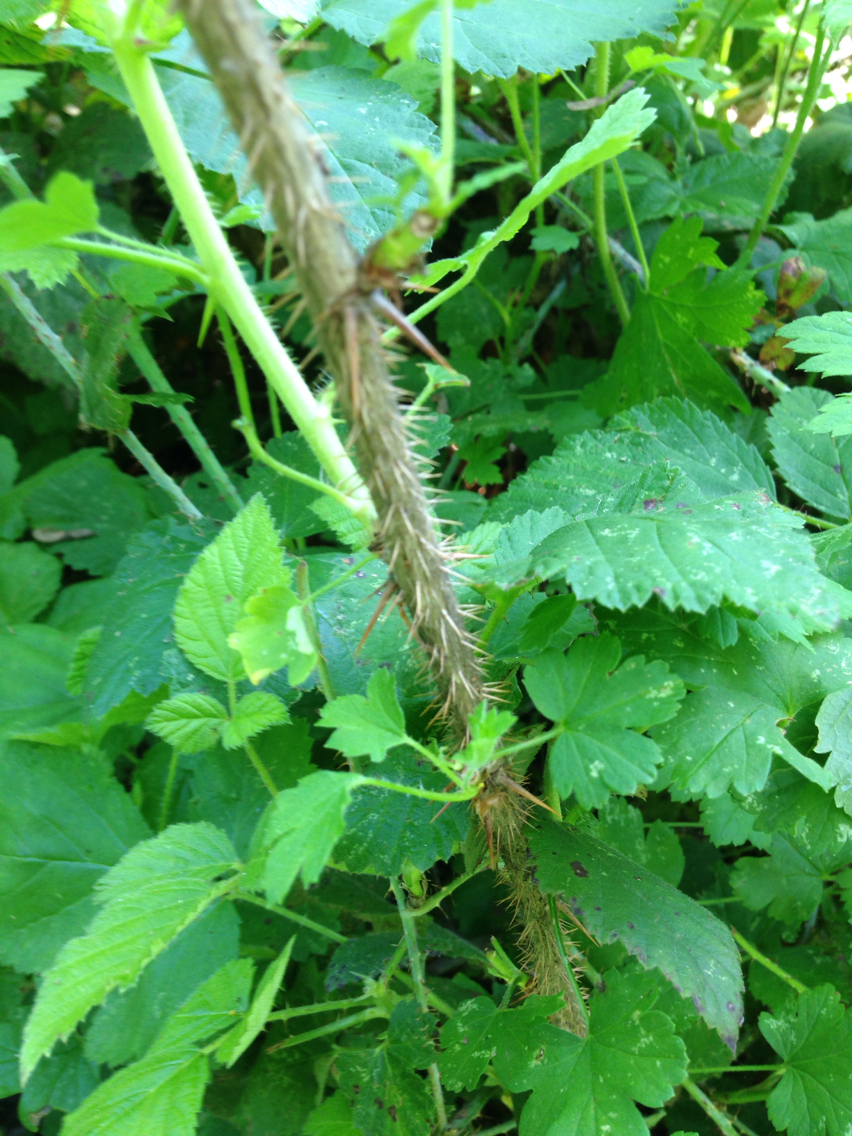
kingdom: Plantae
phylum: Tracheophyta
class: Magnoliopsida
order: Saxifragales
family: Grossulariaceae
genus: Ribes
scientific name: Ribes divaricatum
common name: Wild black gooseberry
